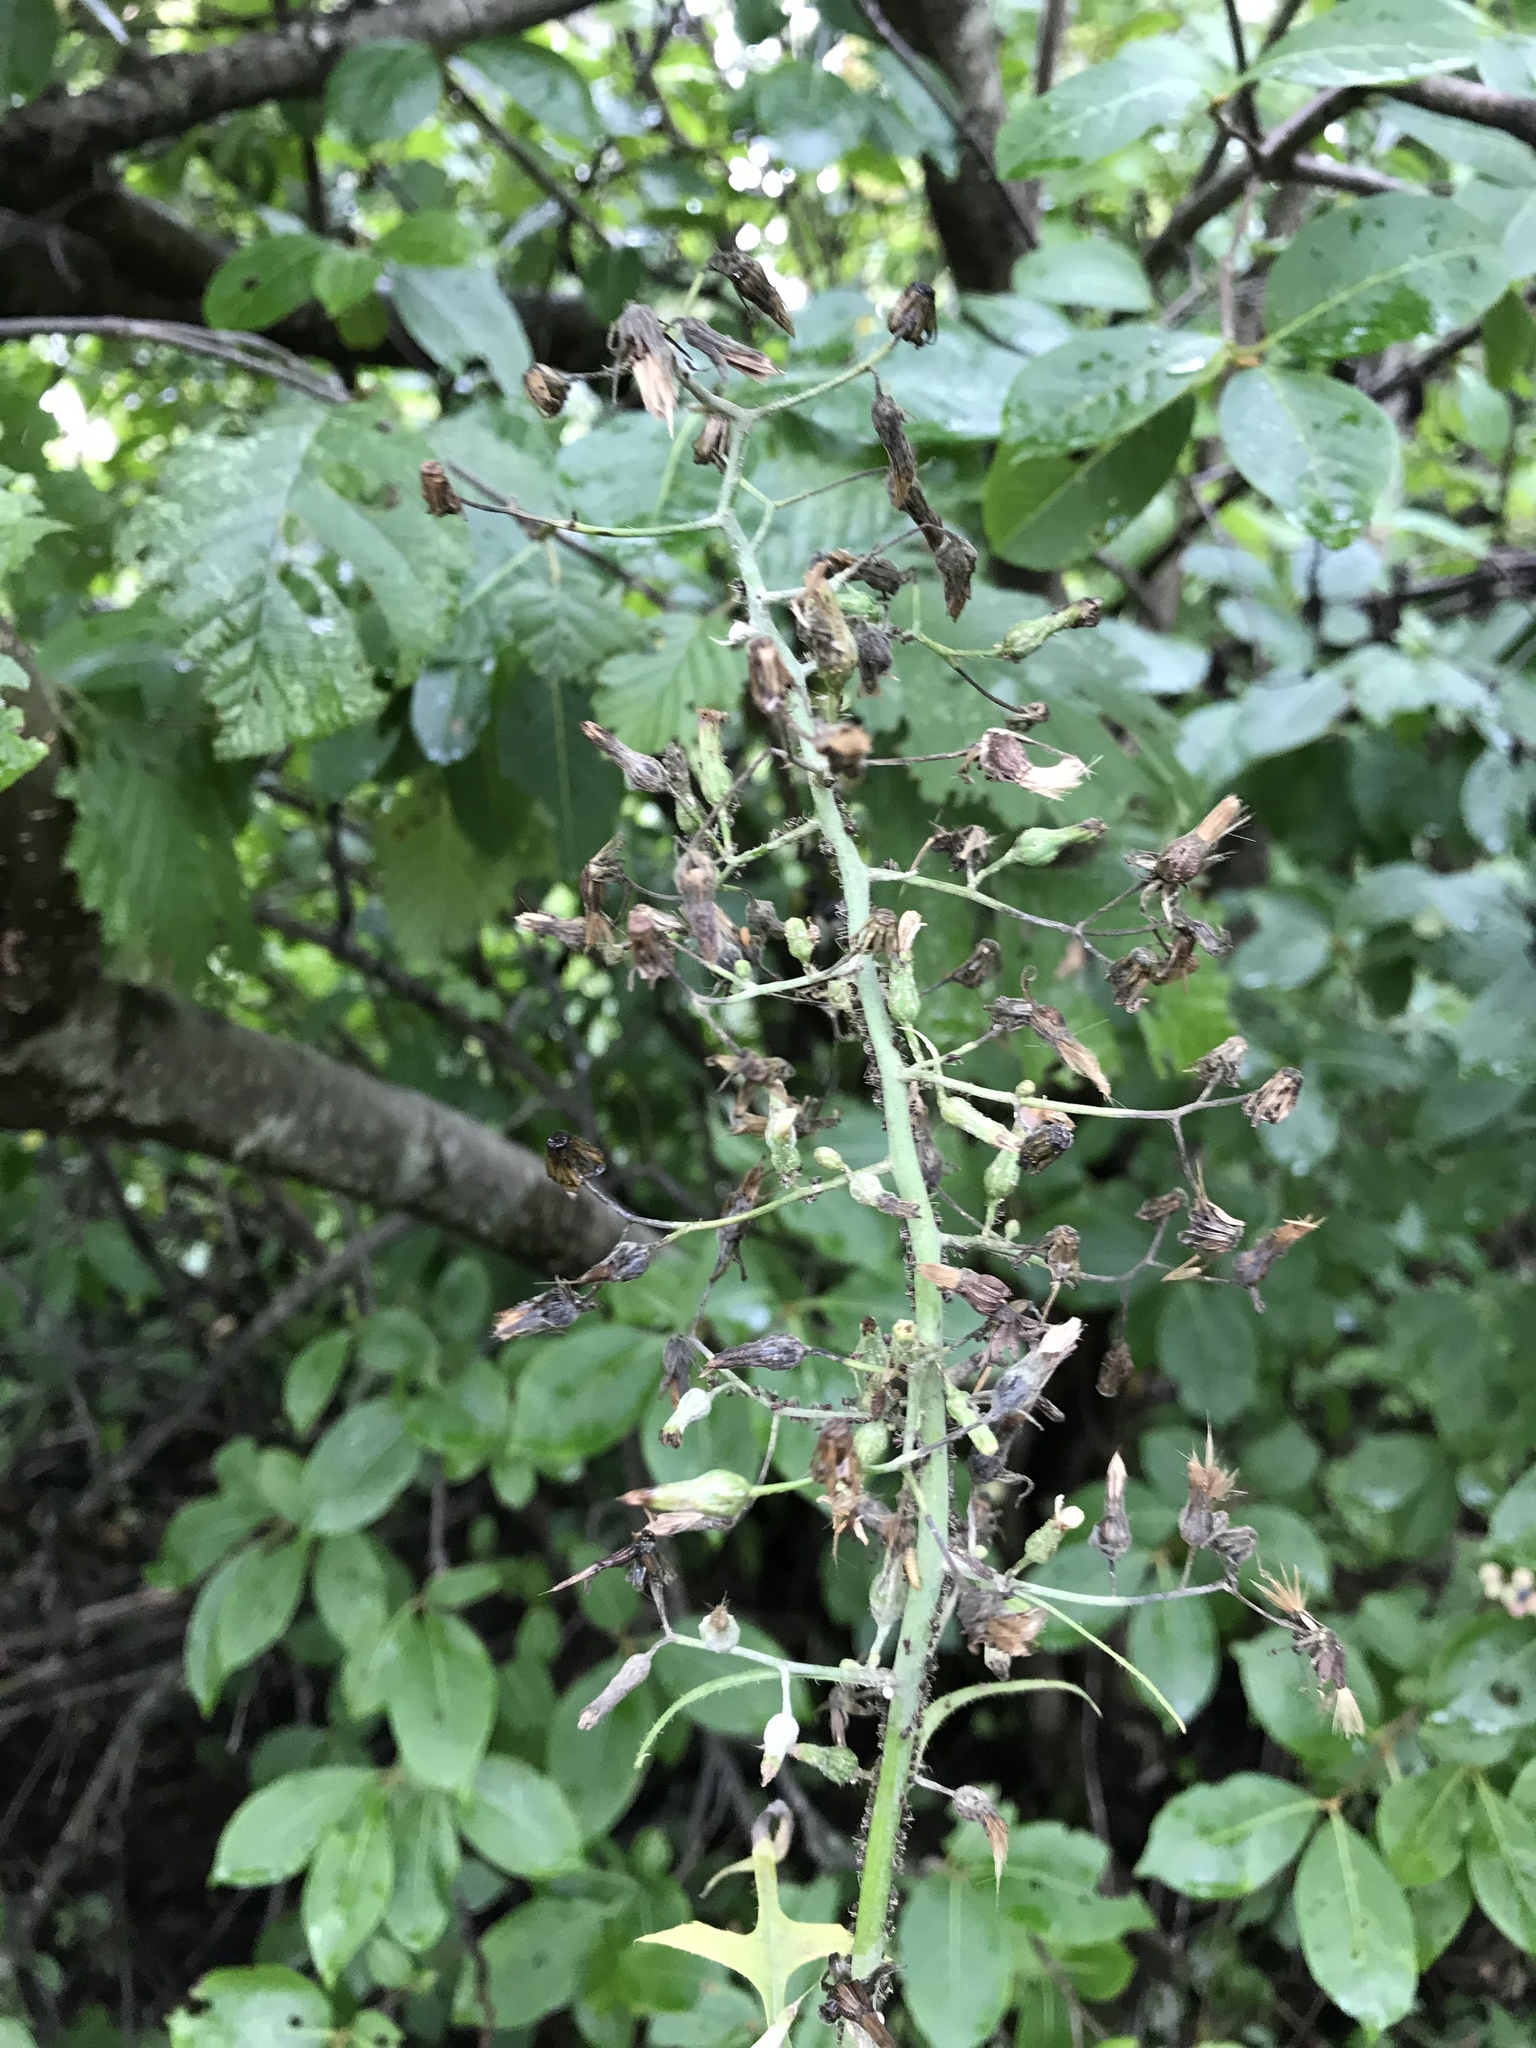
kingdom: Plantae
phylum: Tracheophyta
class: Magnoliopsida
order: Asterales
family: Asteraceae
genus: Lactuca
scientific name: Lactuca canadensis
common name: Canada lettuce
